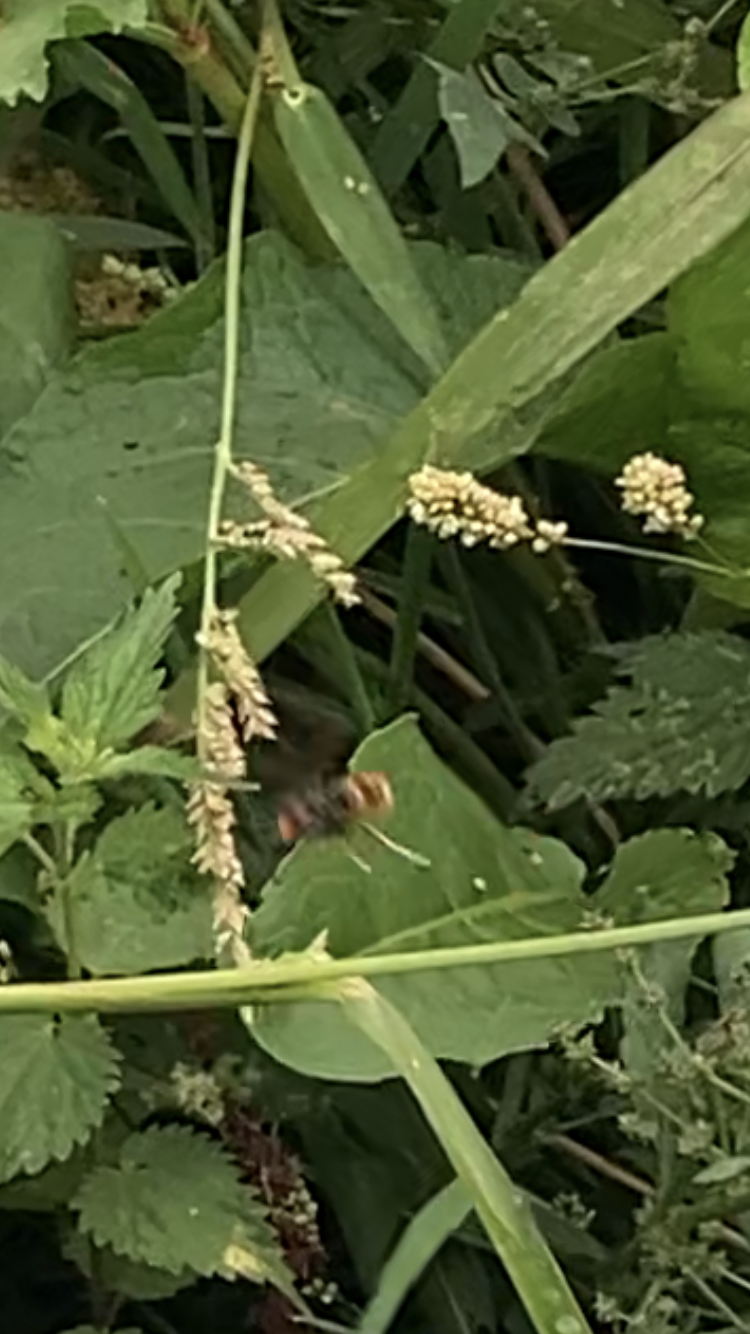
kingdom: Animalia
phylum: Arthropoda
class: Insecta
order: Hymenoptera
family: Vespidae
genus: Vespa
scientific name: Vespa velutina
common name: Asian hornet
